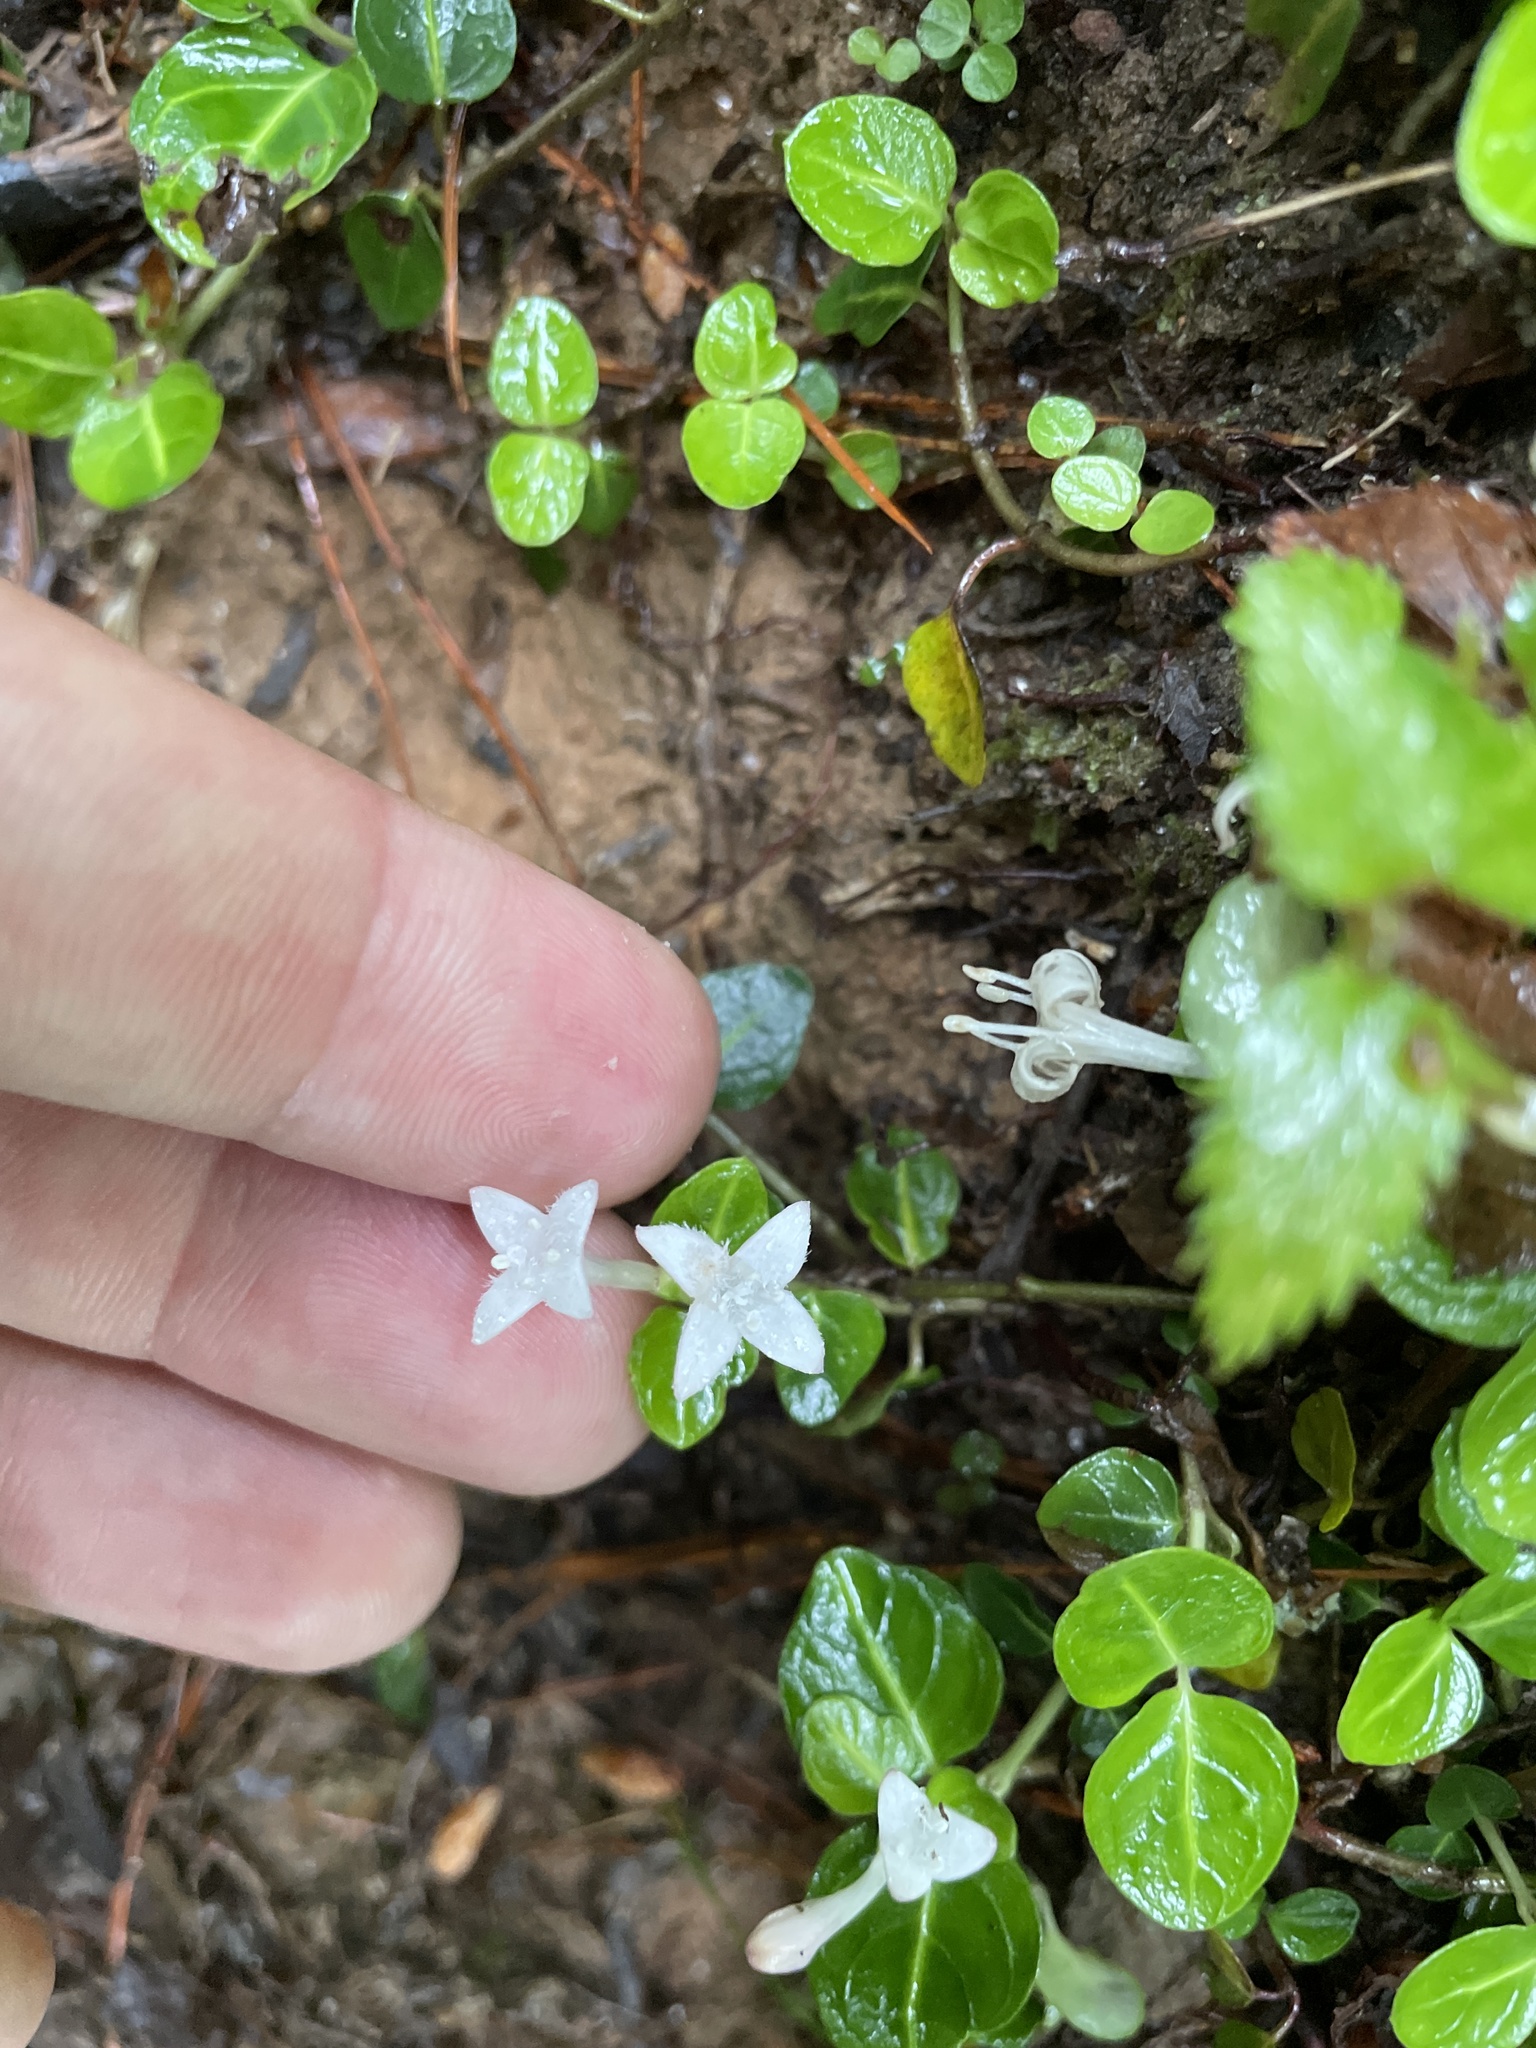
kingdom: Plantae
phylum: Tracheophyta
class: Magnoliopsida
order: Gentianales
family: Rubiaceae
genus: Mitchella
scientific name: Mitchella repens
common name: Partridge-berry
